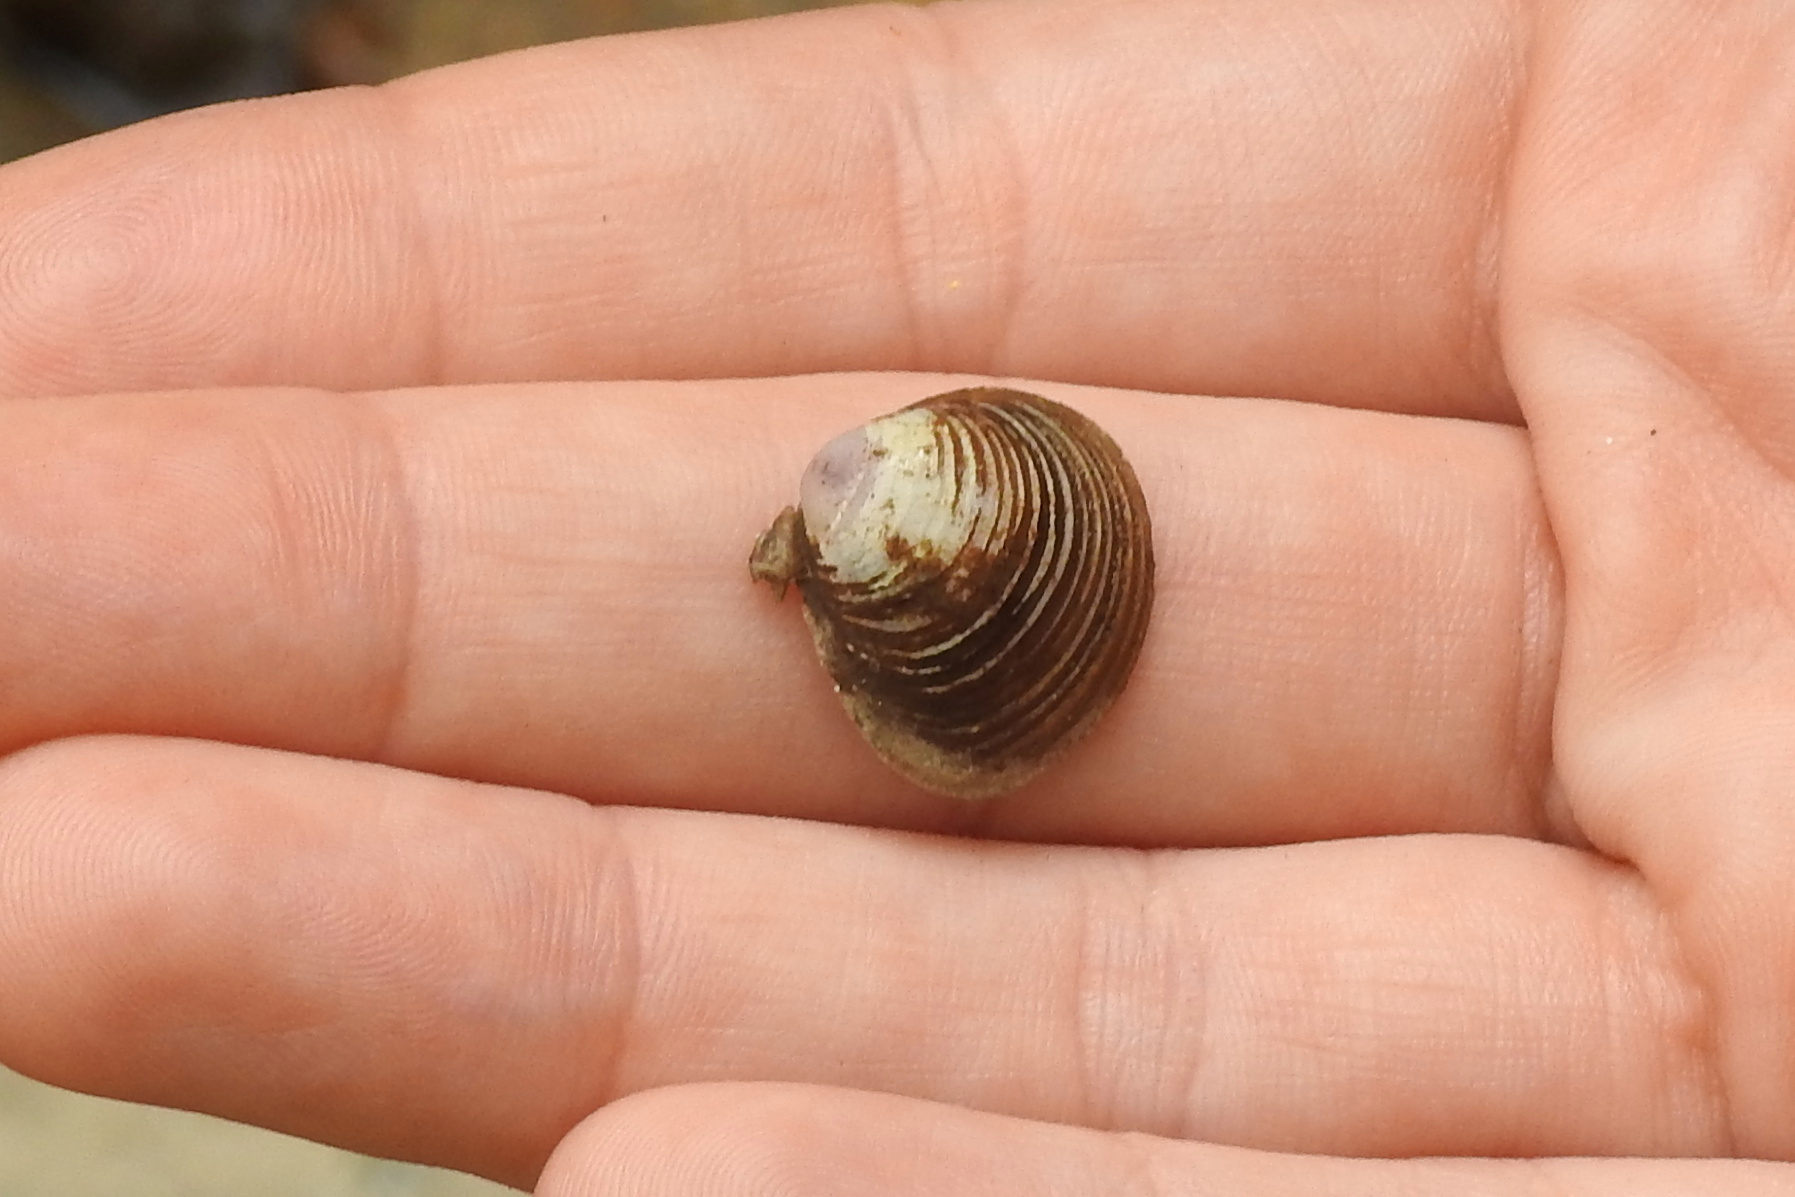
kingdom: Animalia
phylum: Mollusca
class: Bivalvia
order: Venerida
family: Cyrenidae
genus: Corbicula
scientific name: Corbicula fluminea
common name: Asian clam
